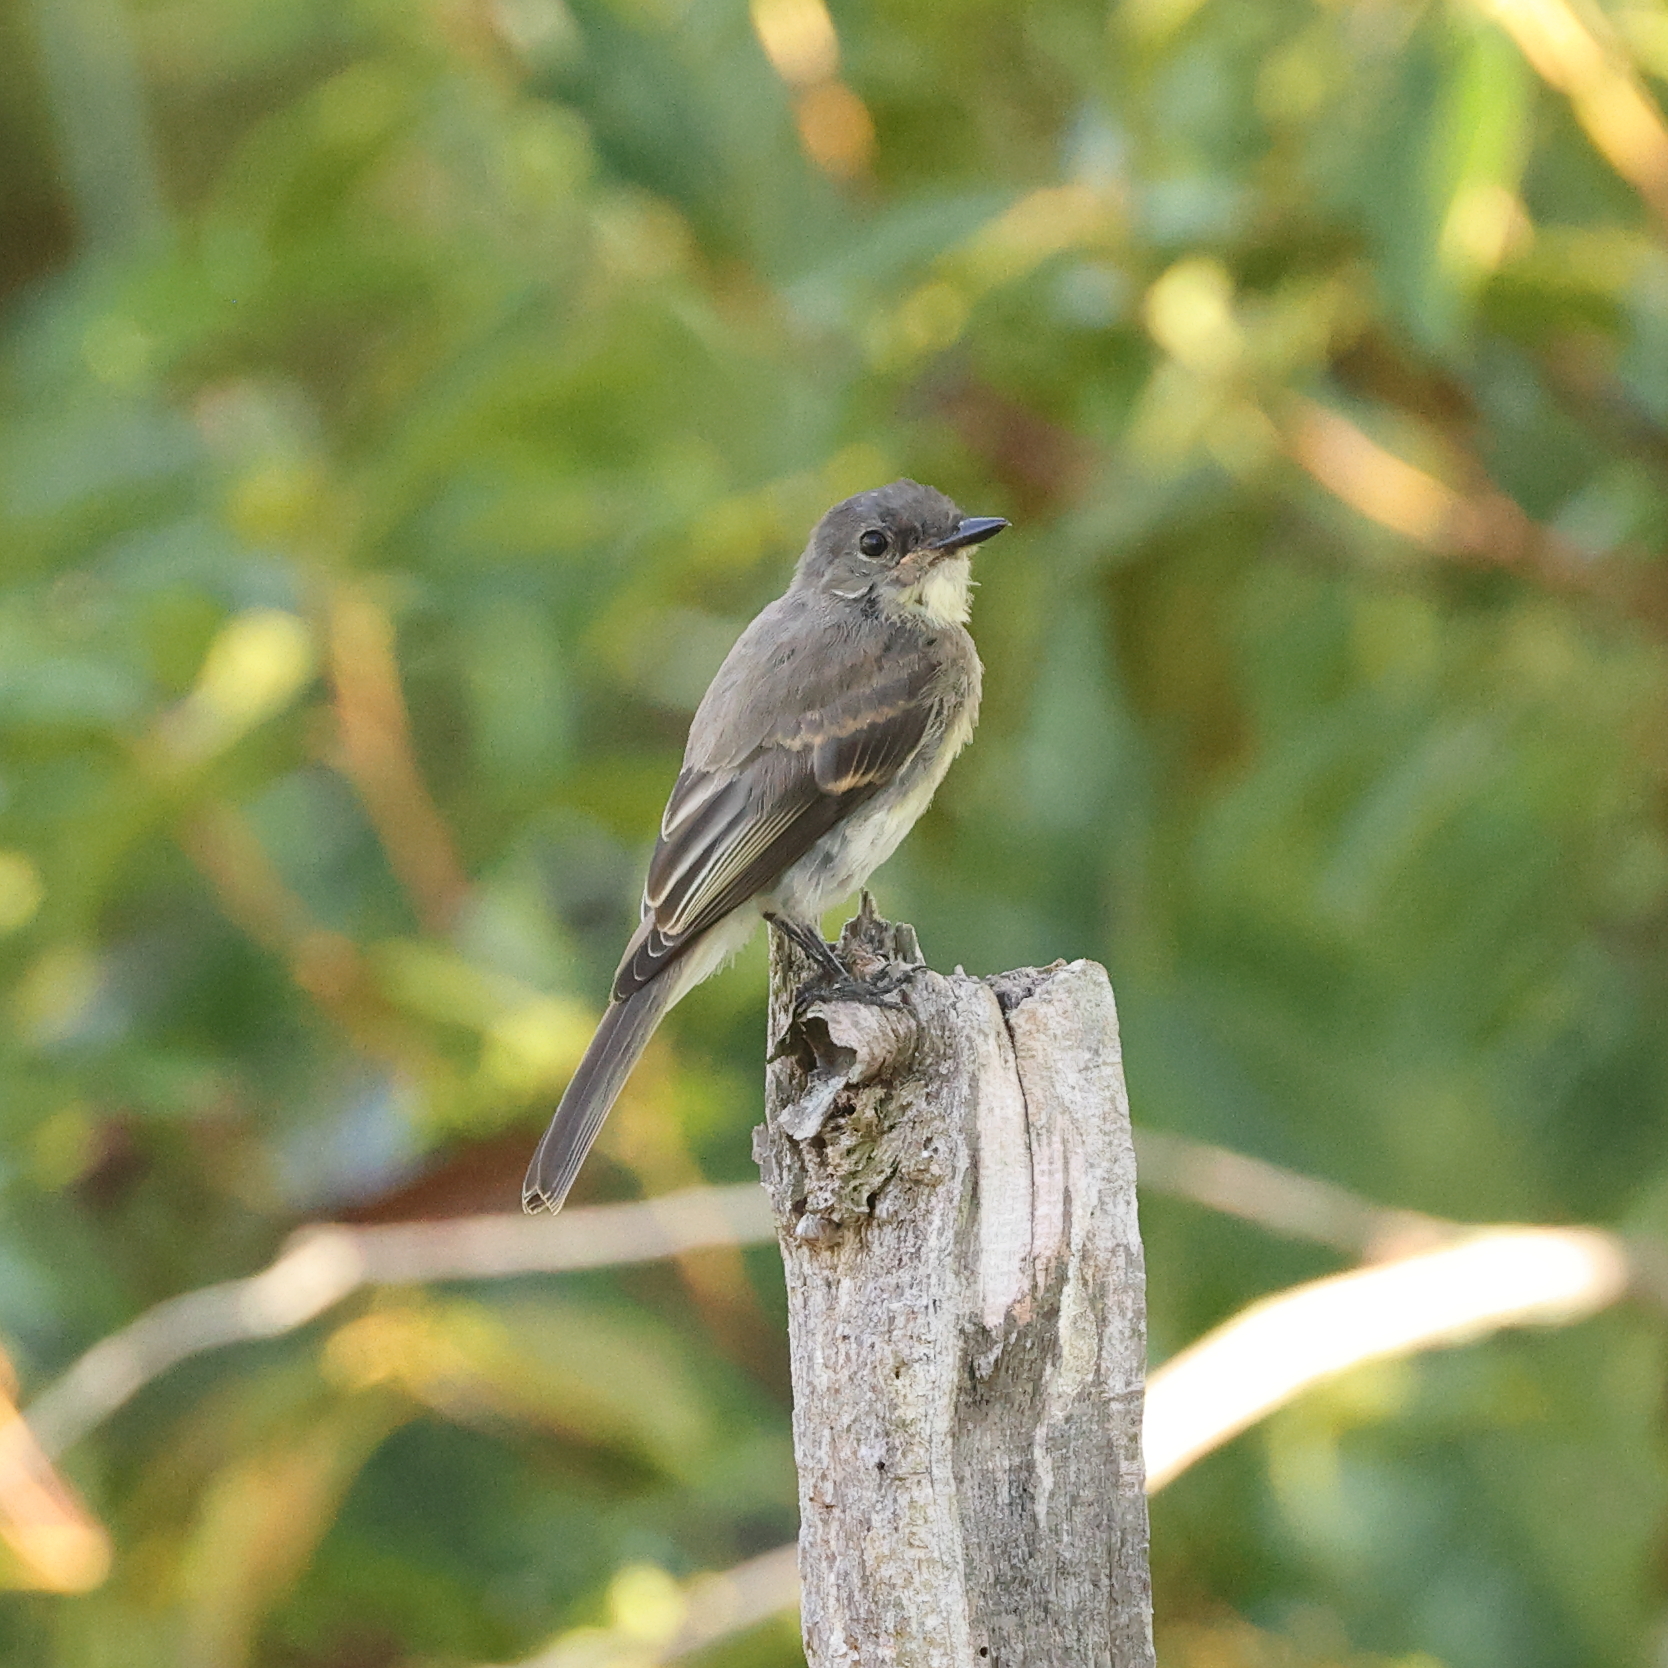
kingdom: Animalia
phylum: Chordata
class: Aves
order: Passeriformes
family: Tyrannidae
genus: Sayornis
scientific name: Sayornis phoebe
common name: Eastern phoebe
